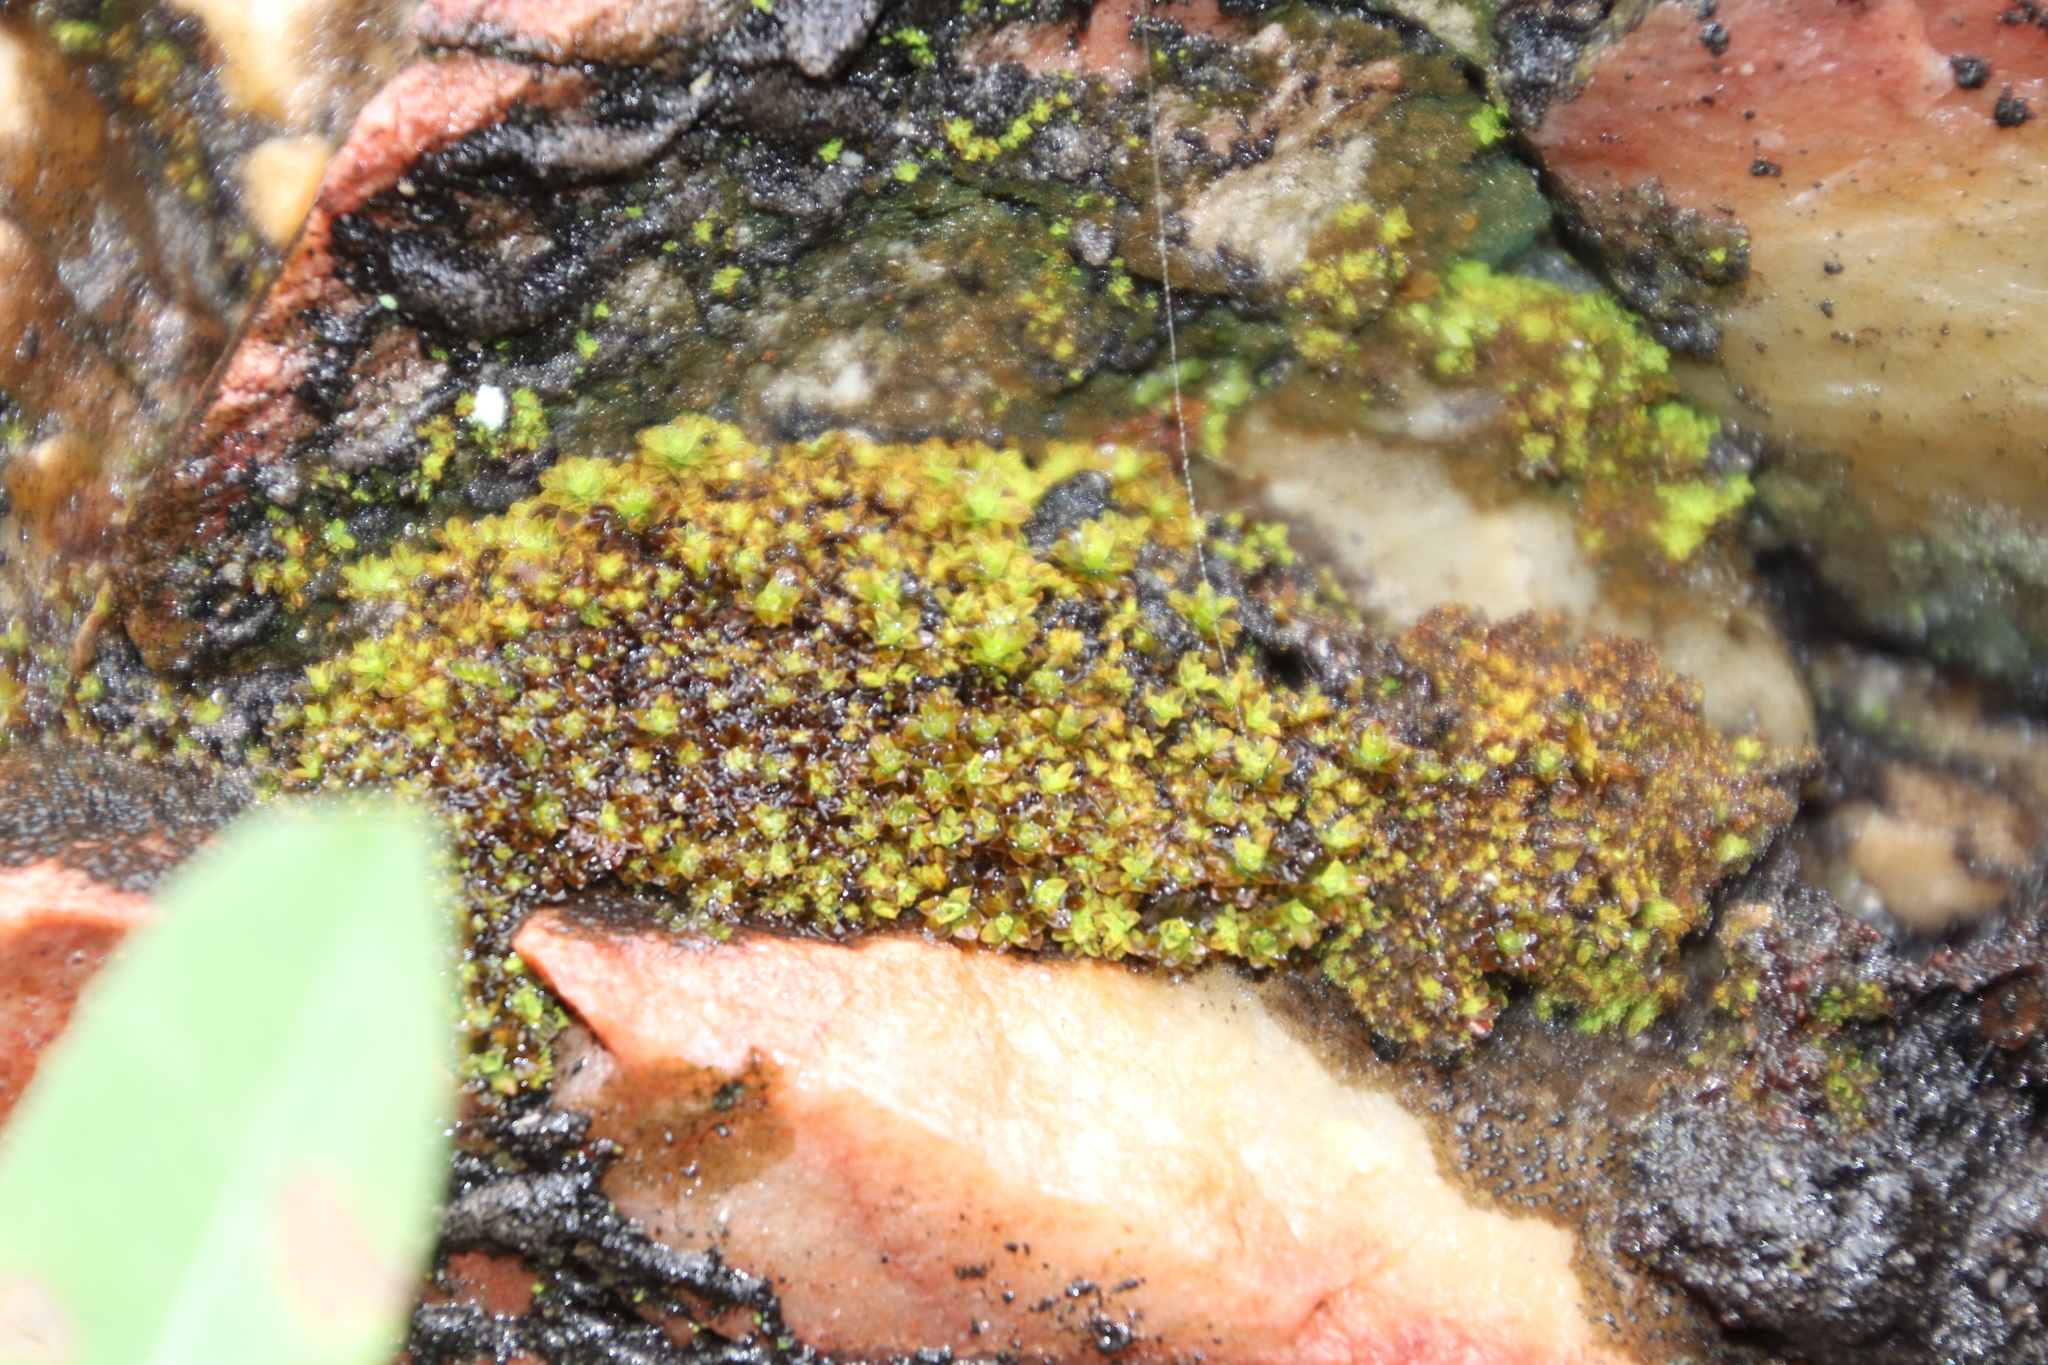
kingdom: Plantae
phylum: Bryophyta
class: Bryopsida
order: Pottiales
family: Pottiaceae
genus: Tortula
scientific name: Tortula atrovirens
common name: Rib-leaf moss
